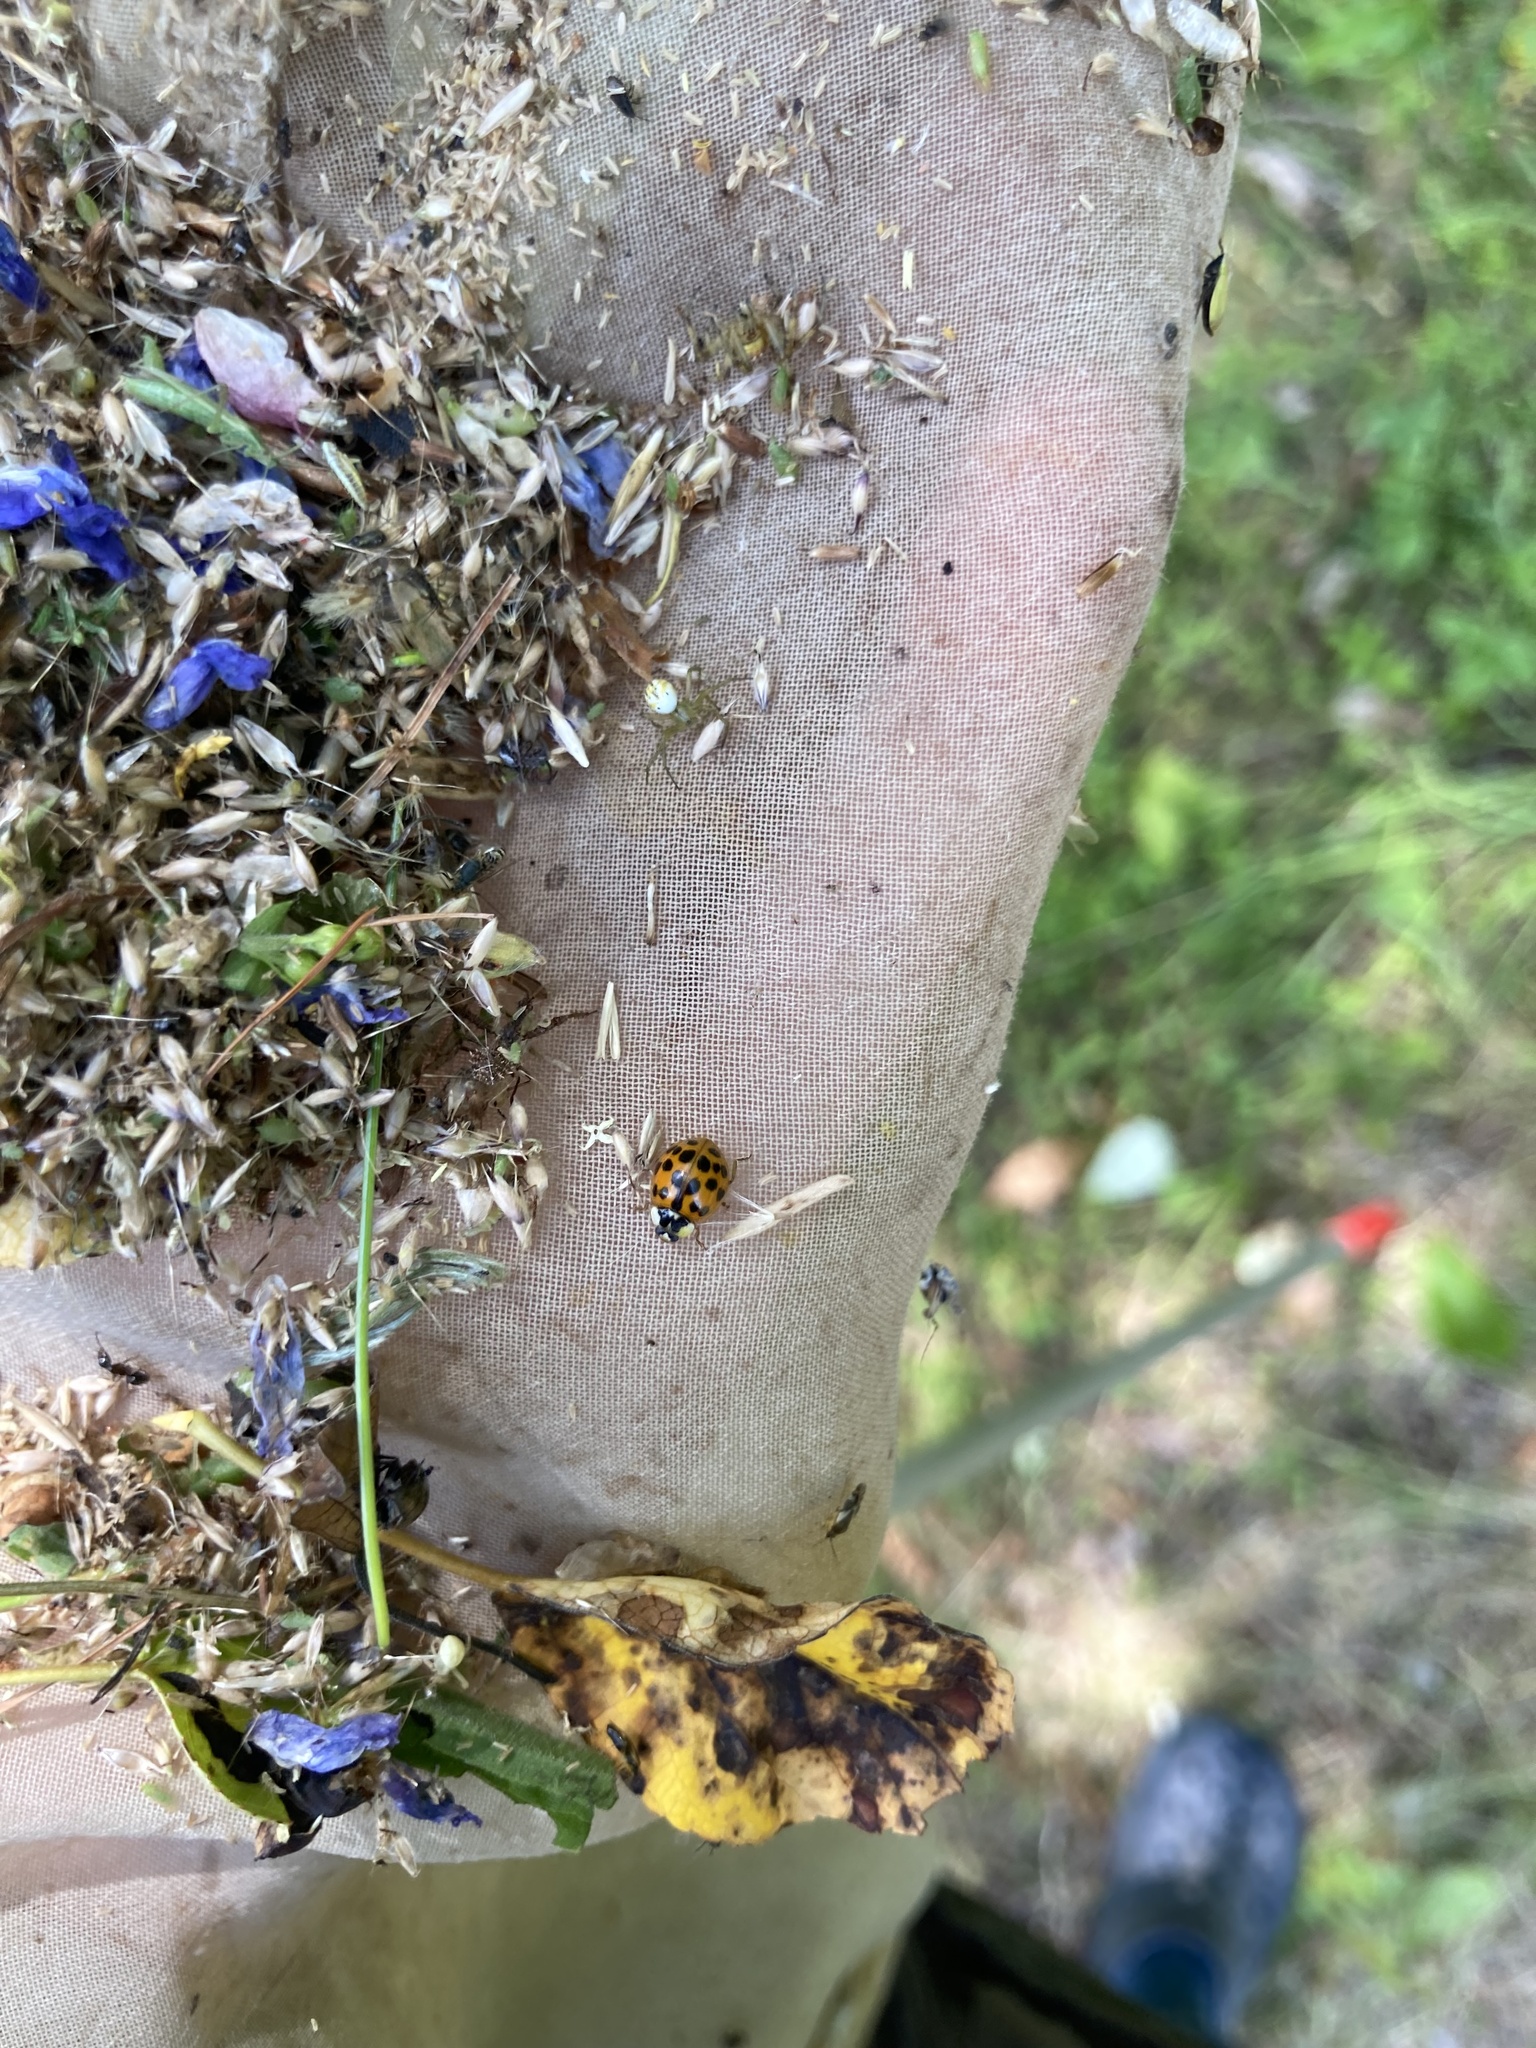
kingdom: Animalia
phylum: Arthropoda
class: Insecta
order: Coleoptera
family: Coccinellidae
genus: Harmonia
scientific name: Harmonia axyridis
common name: Harlequin ladybird
